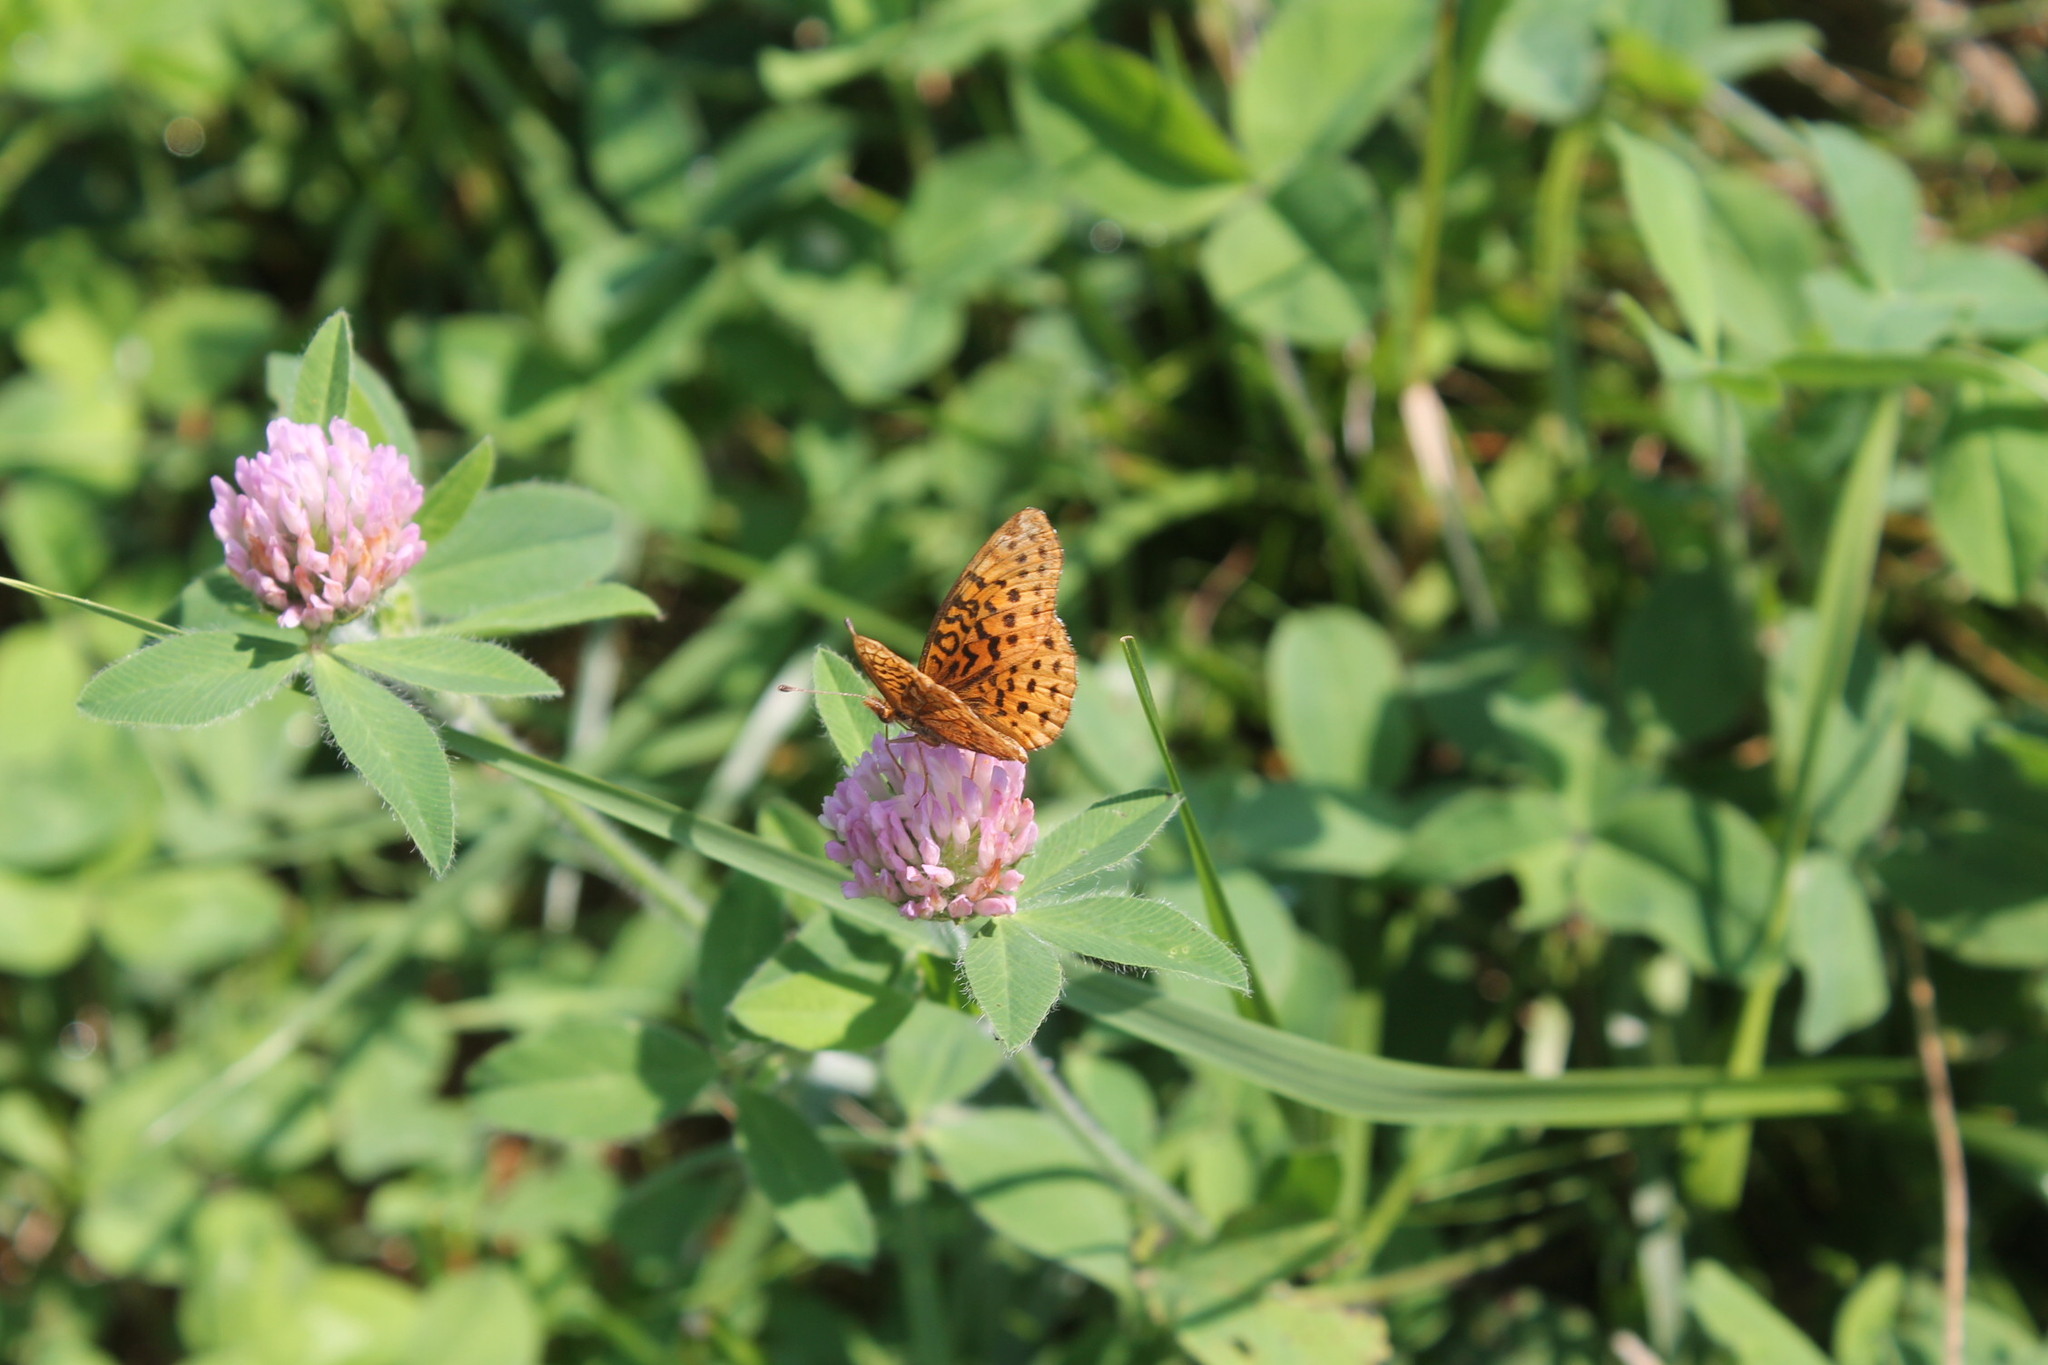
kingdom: Animalia
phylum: Arthropoda
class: Insecta
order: Lepidoptera
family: Nymphalidae
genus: Clossiana
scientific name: Clossiana toddi
